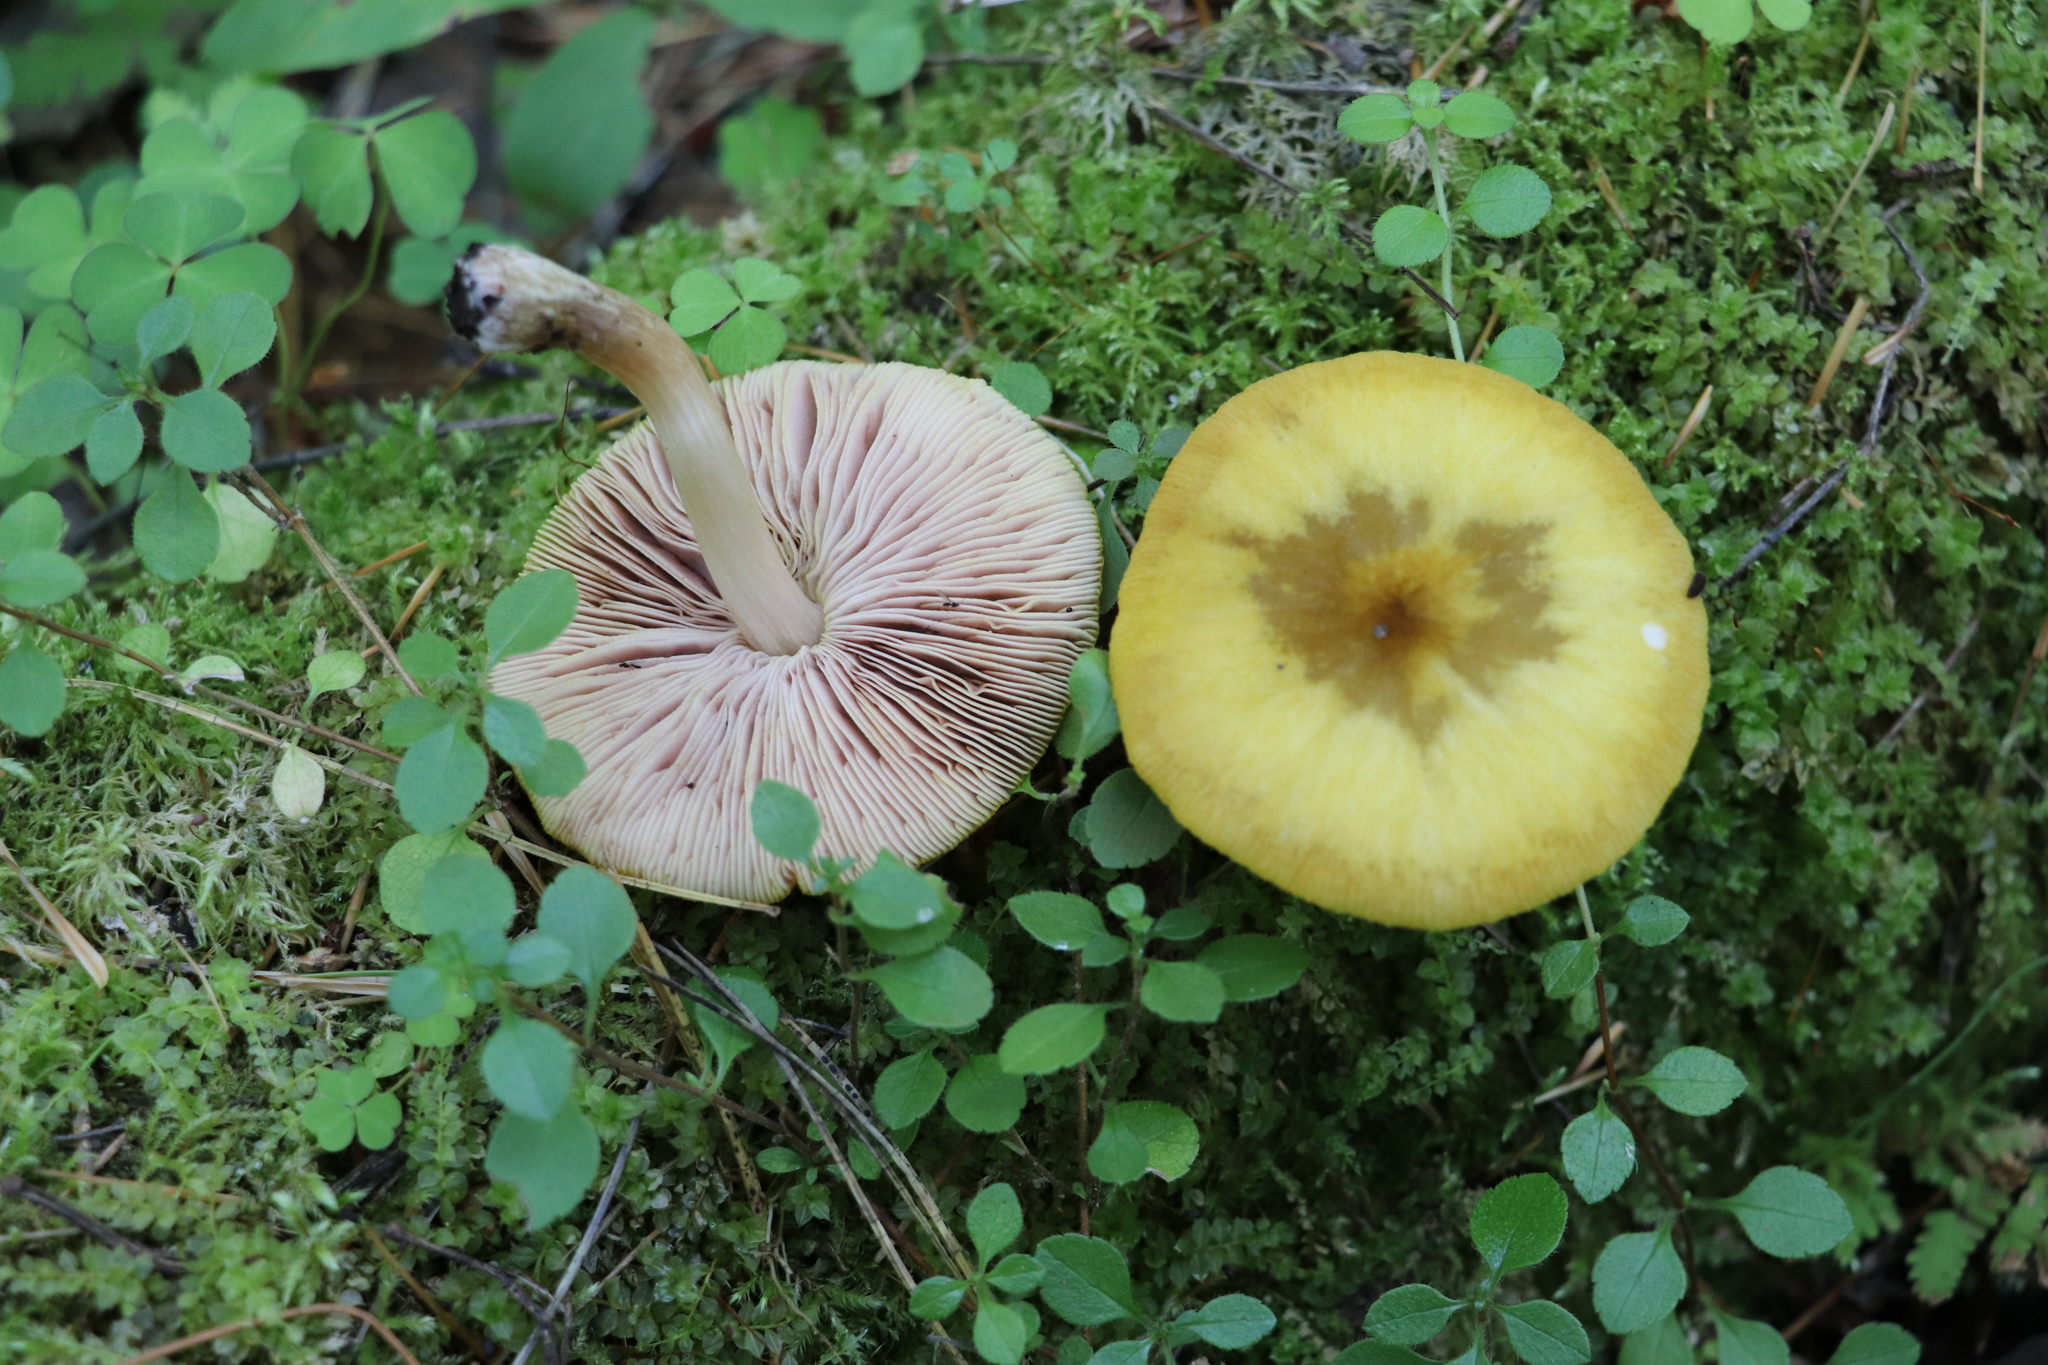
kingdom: Fungi
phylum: Basidiomycota
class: Agaricomycetes
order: Agaricales
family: Pluteaceae
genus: Pluteus
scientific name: Pluteus leoninus
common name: Lion shield
